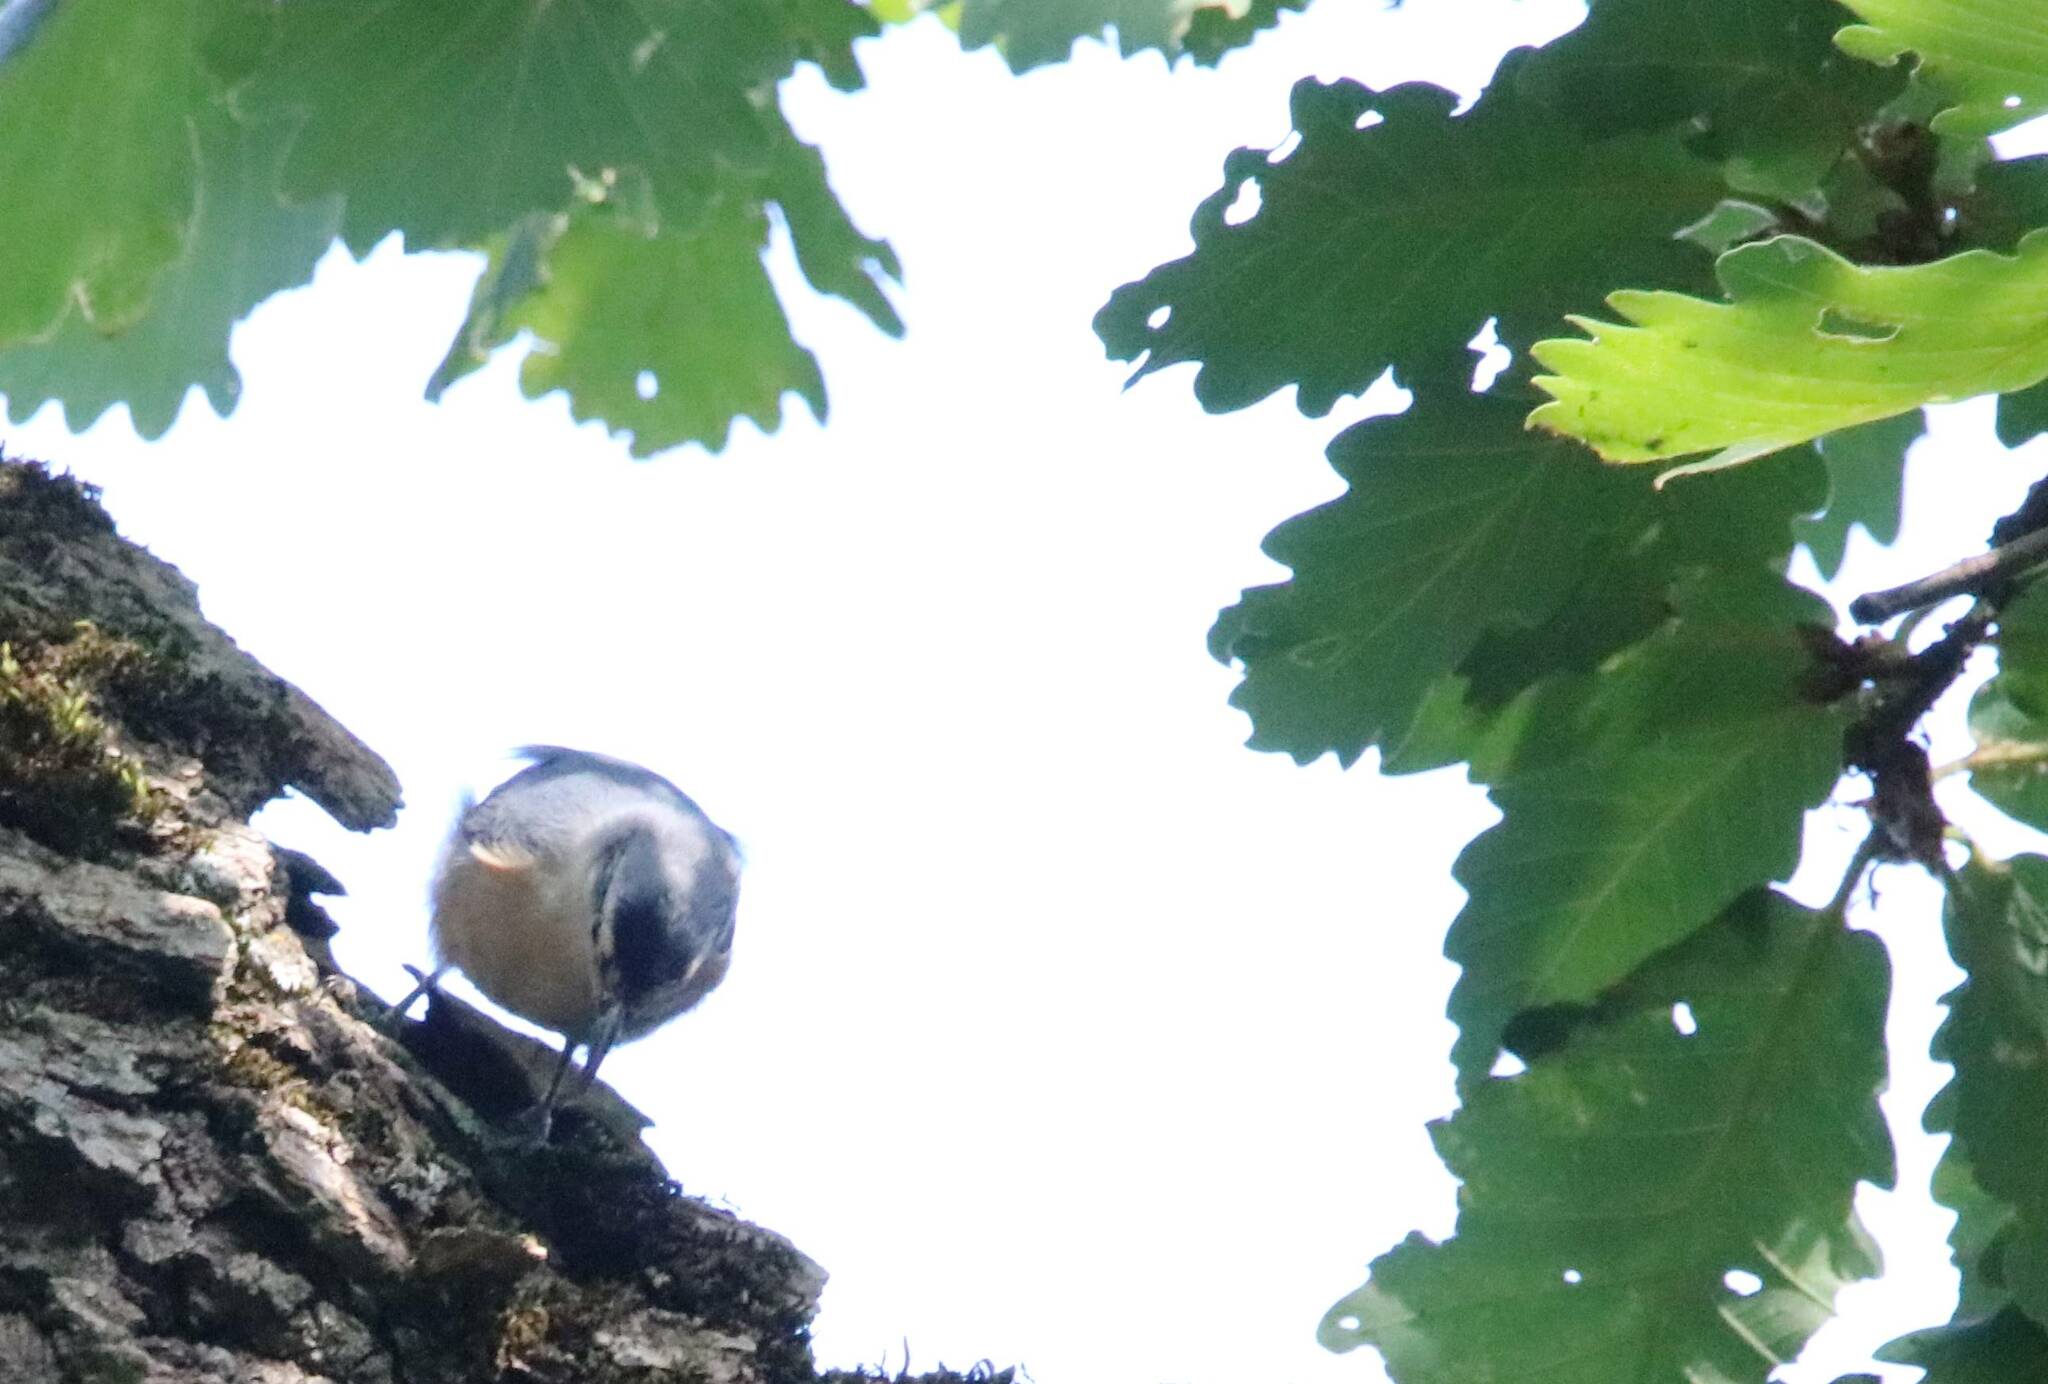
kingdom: Animalia
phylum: Chordata
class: Aves
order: Passeriformes
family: Sittidae
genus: Sitta
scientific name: Sitta ledanti
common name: Algerian nuthatch
